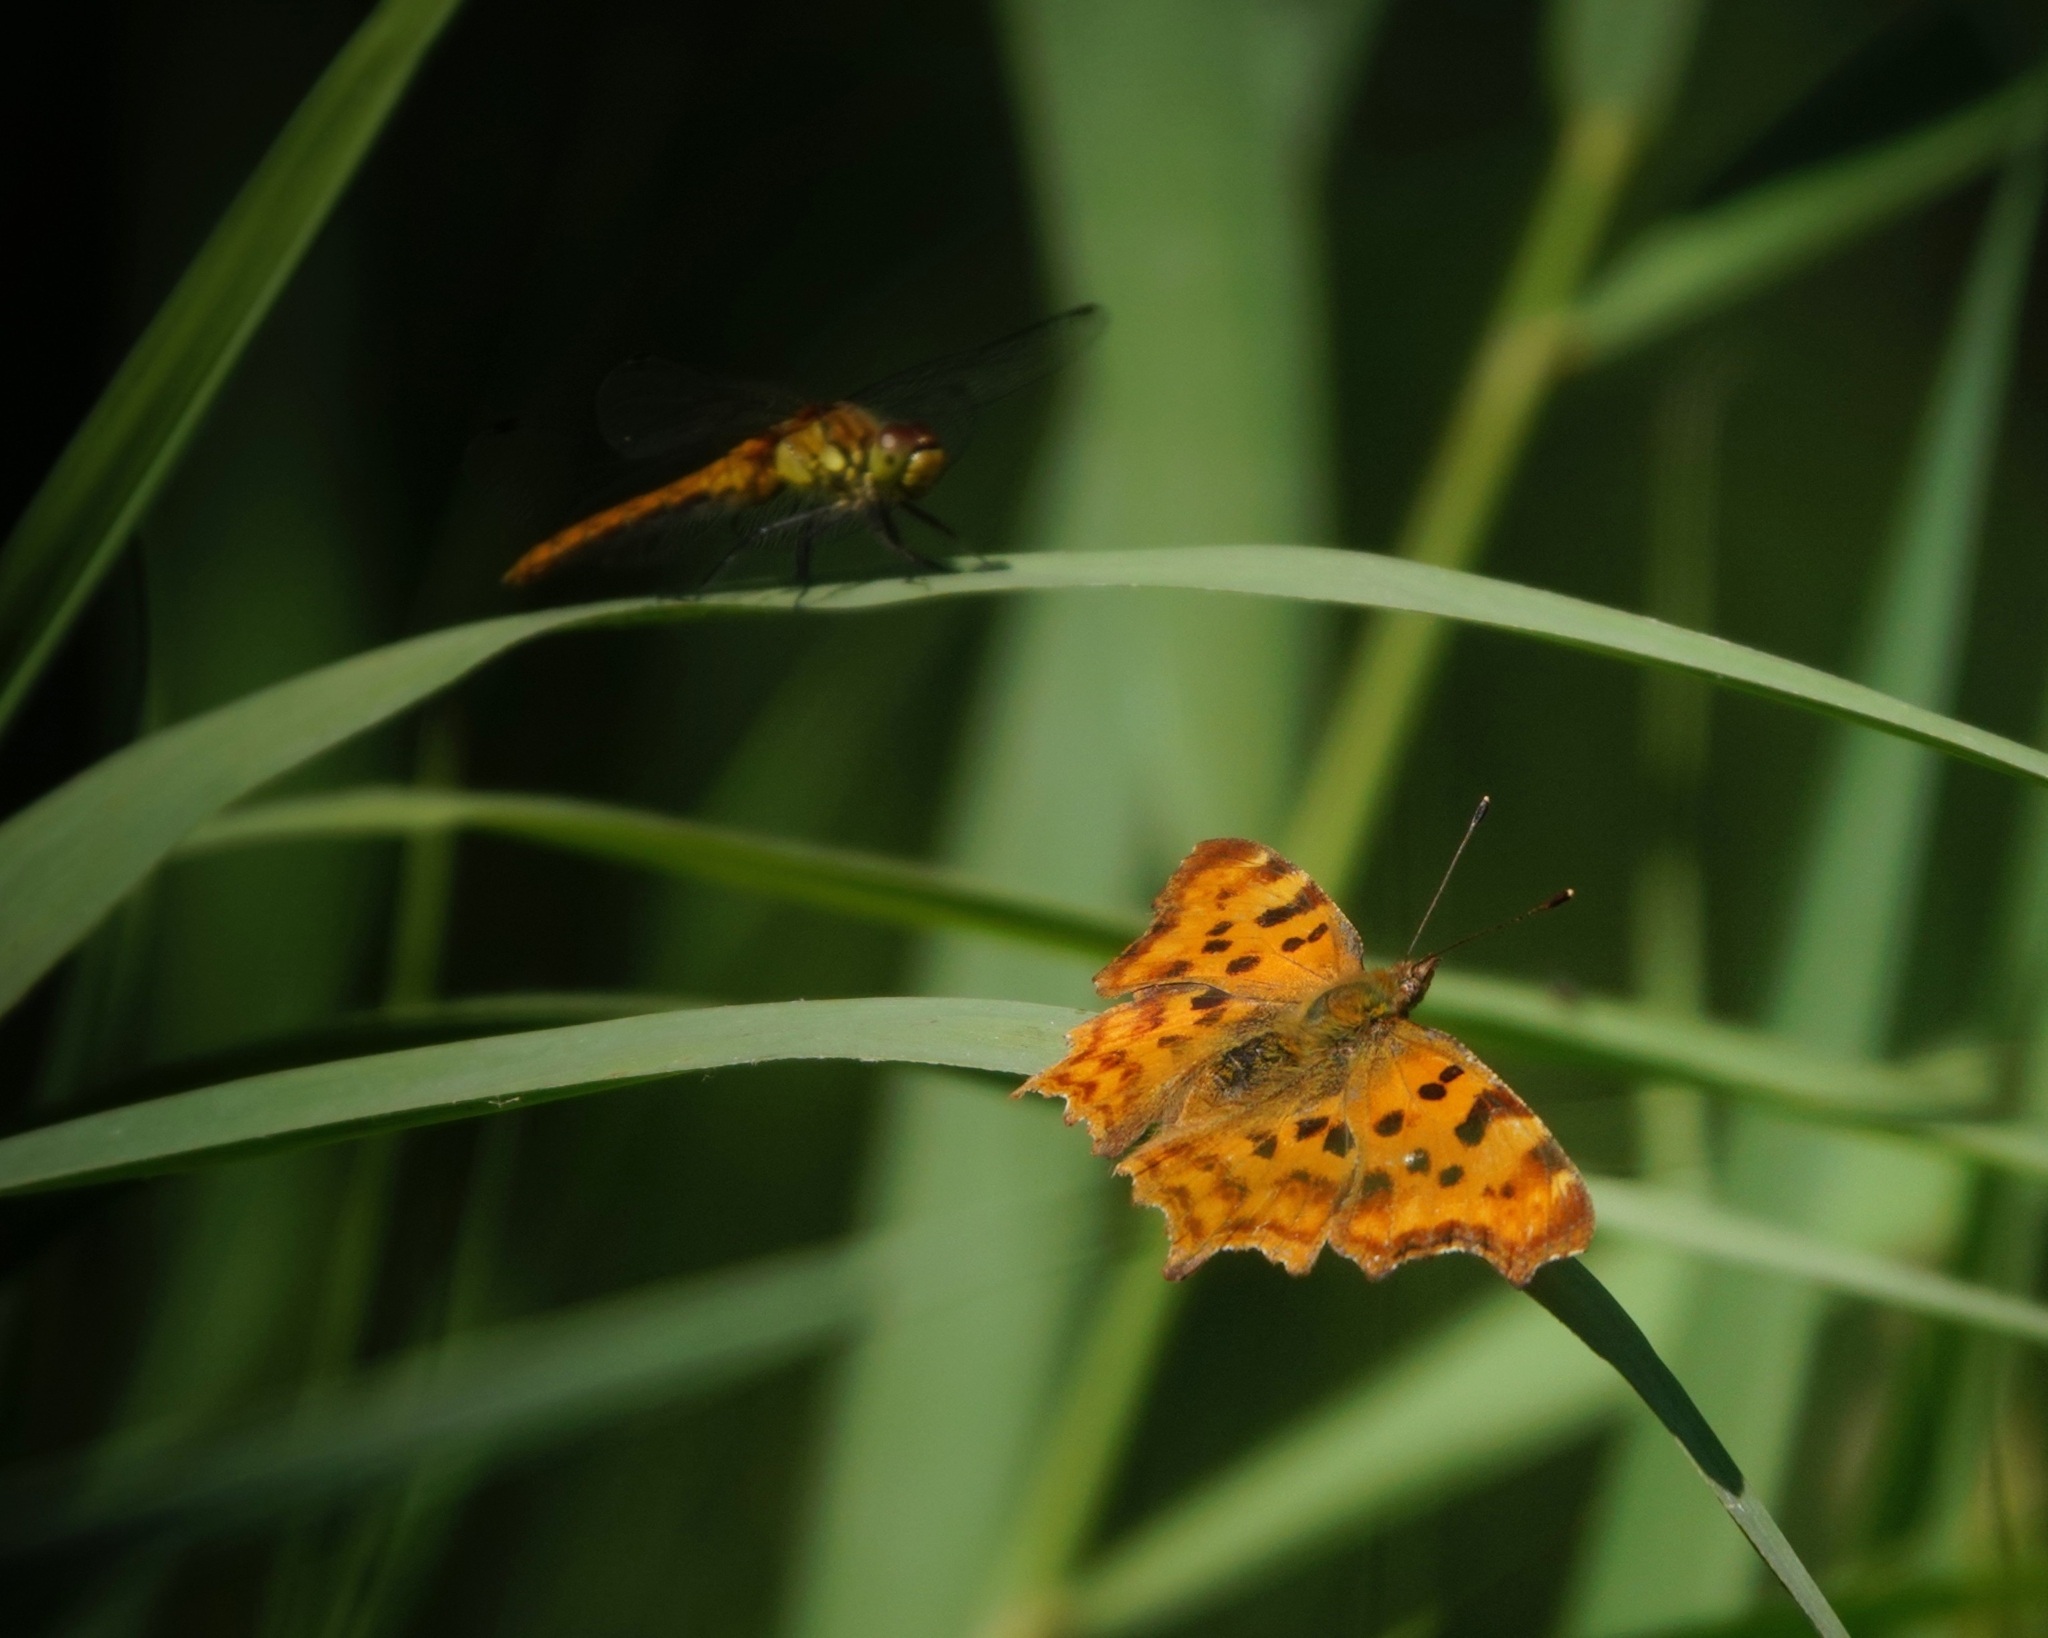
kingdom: Animalia
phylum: Arthropoda
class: Insecta
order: Lepidoptera
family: Nymphalidae
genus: Polygonia
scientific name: Polygonia c-album
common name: Comma
